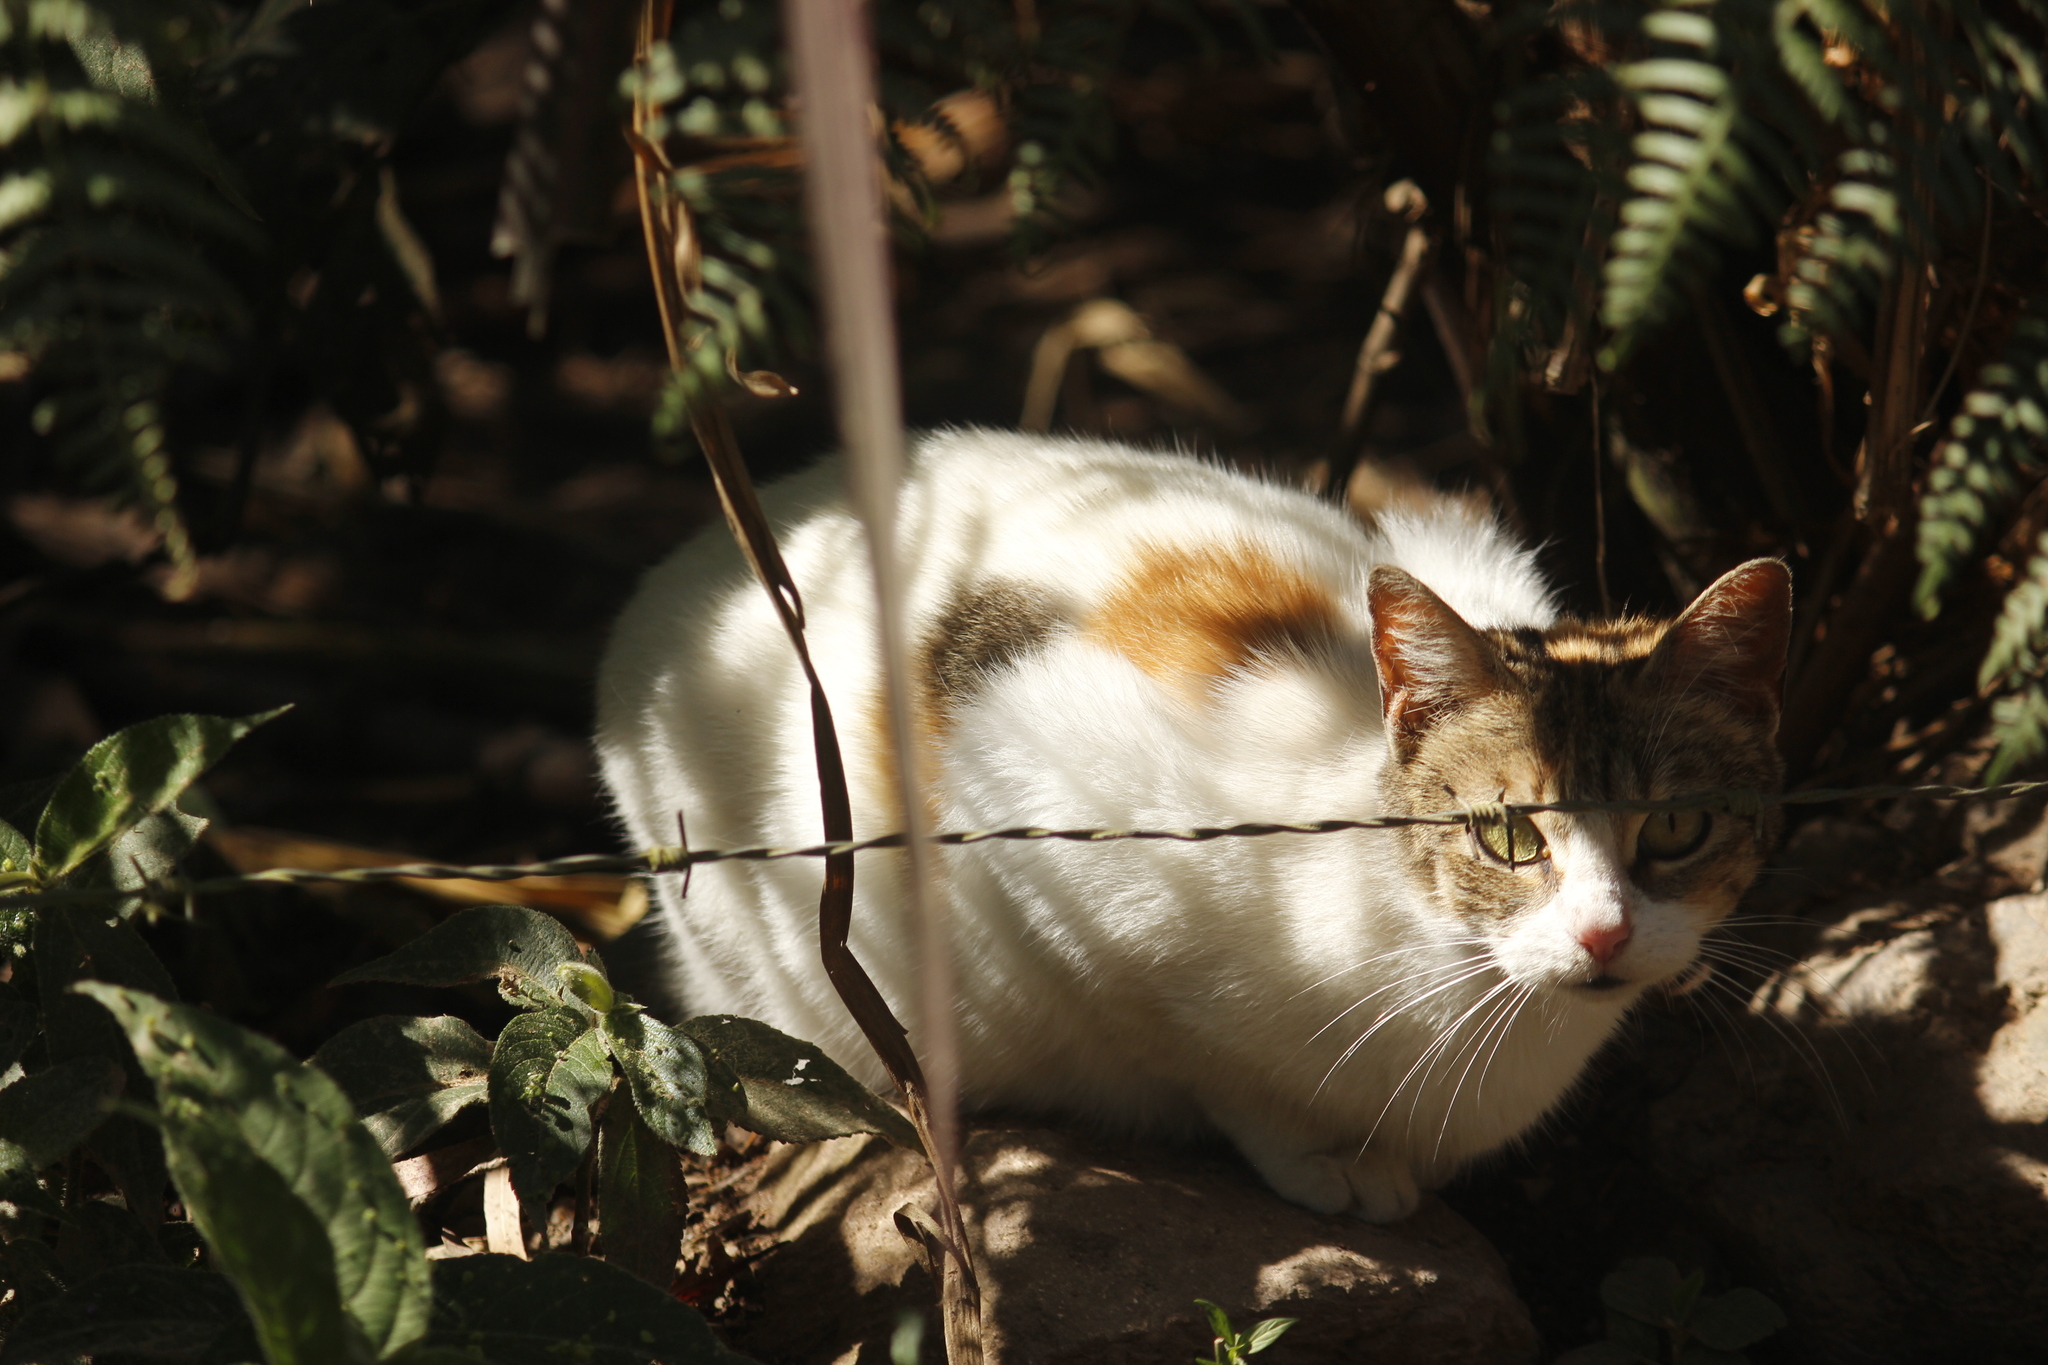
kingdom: Animalia
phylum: Chordata
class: Mammalia
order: Carnivora
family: Felidae
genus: Felis
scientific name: Felis catus
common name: Domestic cat
